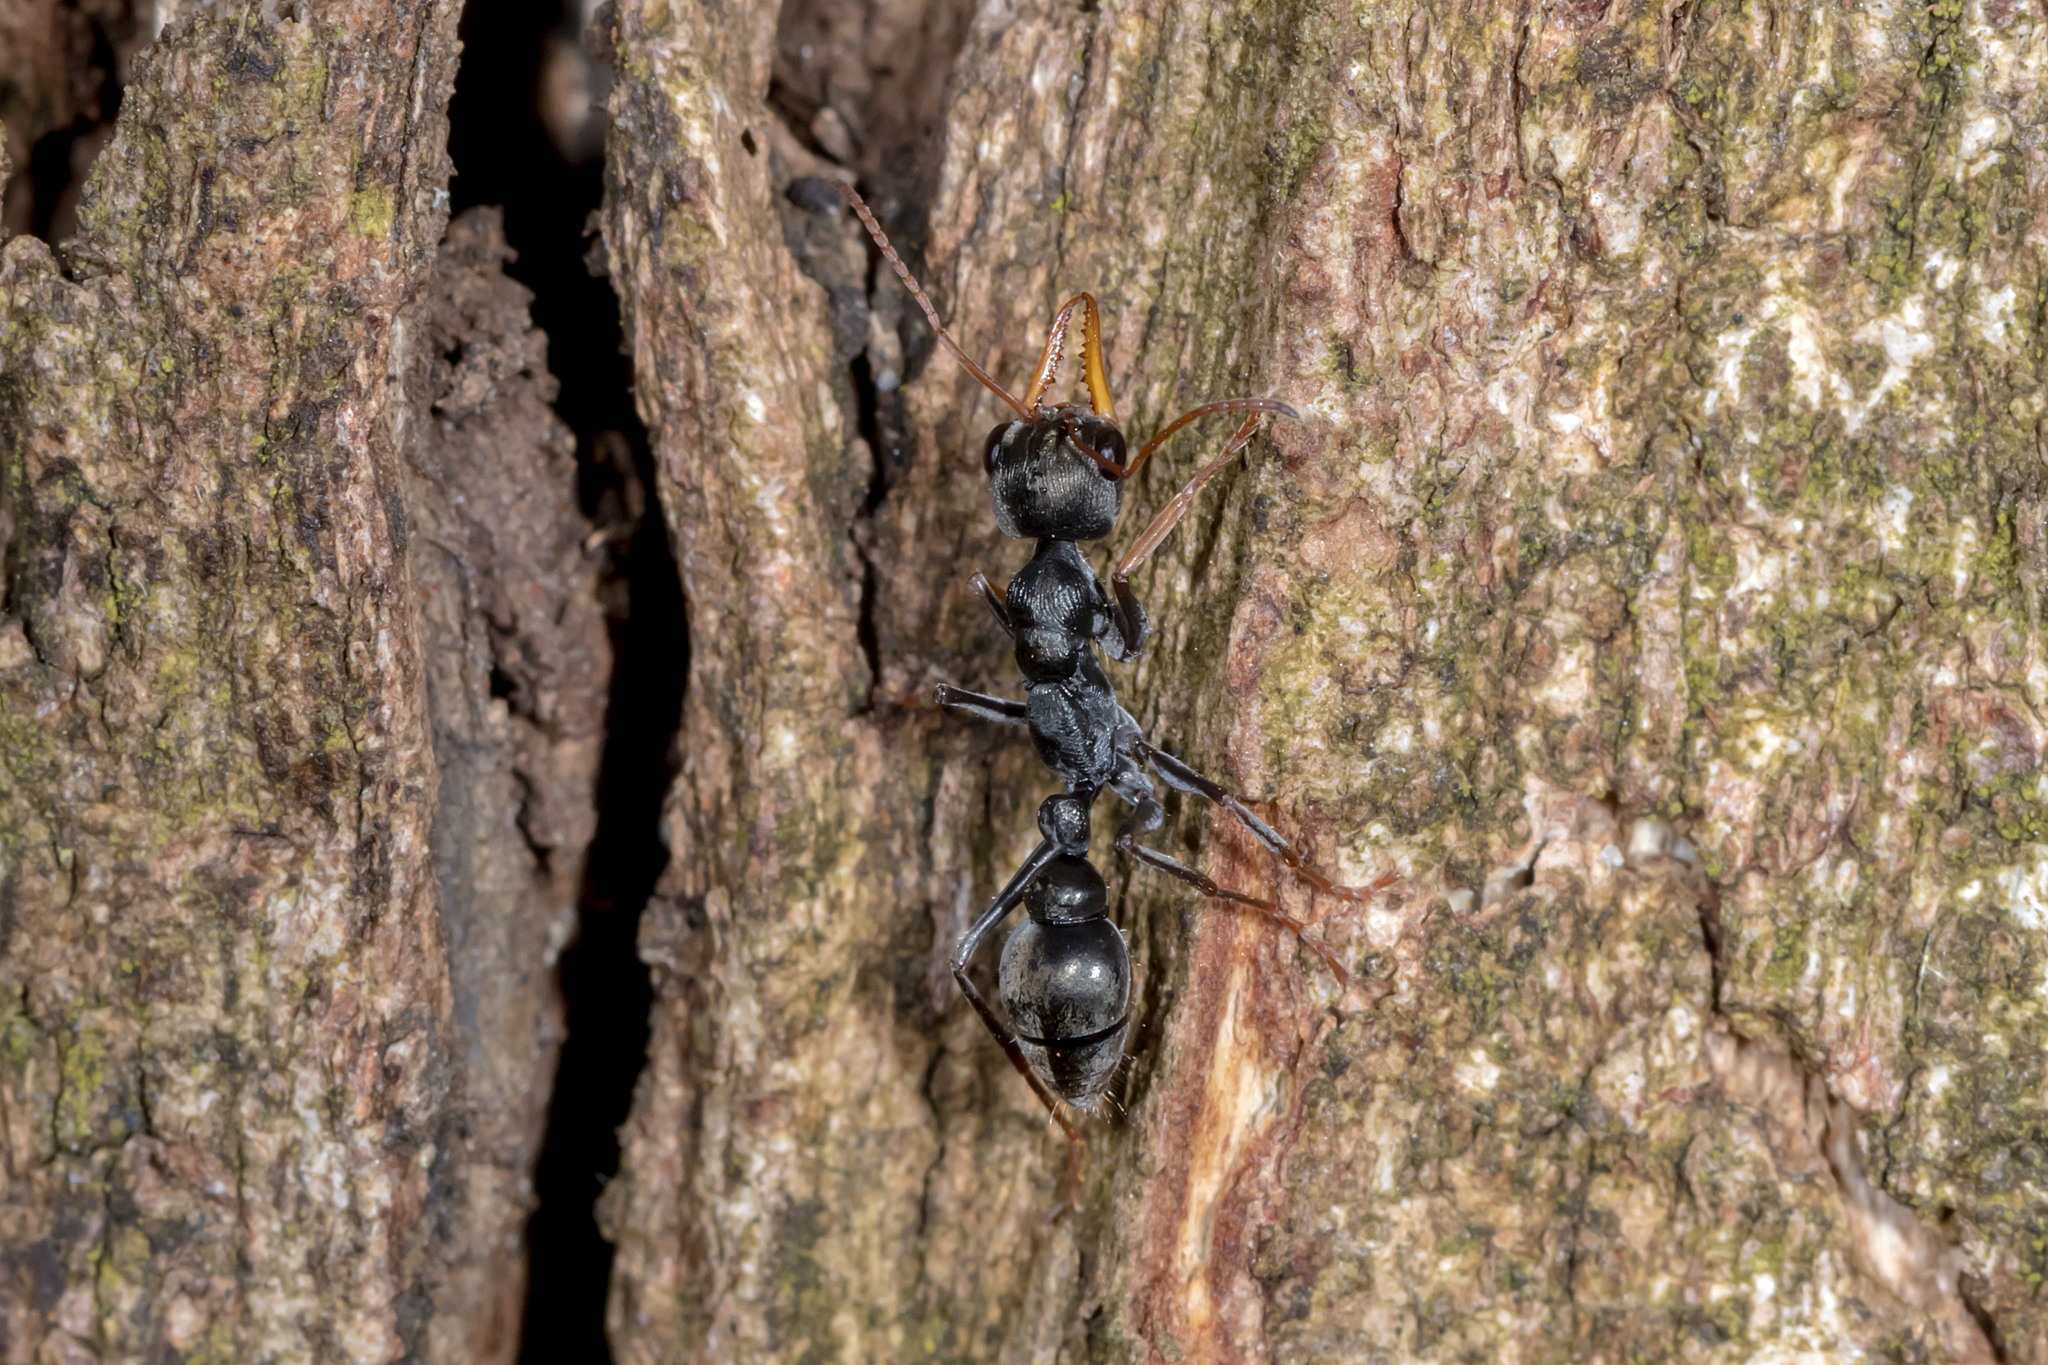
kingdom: Animalia
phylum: Arthropoda
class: Insecta
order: Hymenoptera
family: Formicidae
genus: Myrmecia
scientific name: Myrmecia pilosula
